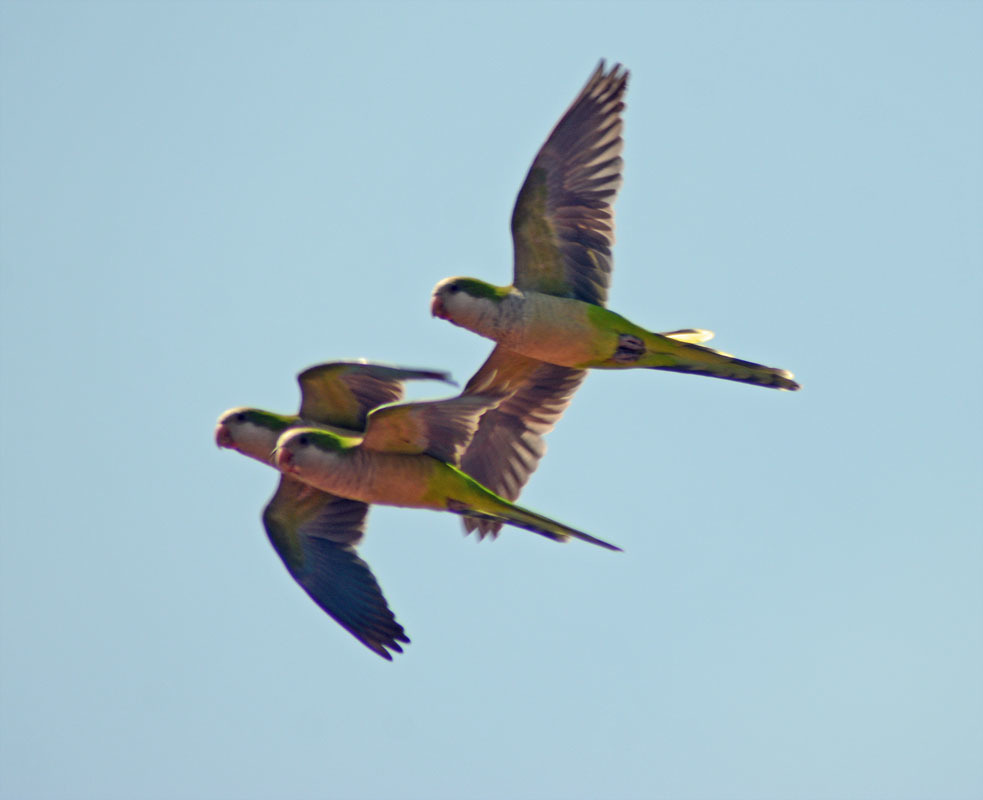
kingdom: Animalia
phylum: Chordata
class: Aves
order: Psittaciformes
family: Psittacidae
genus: Myiopsitta
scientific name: Myiopsitta monachus
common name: Monk parakeet
